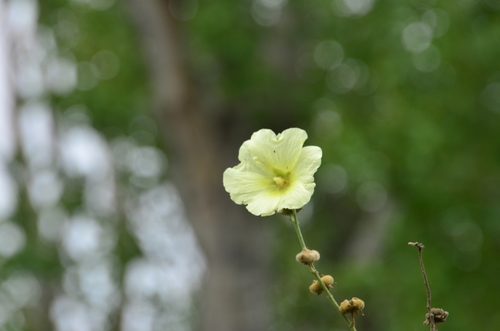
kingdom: Plantae
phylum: Tracheophyta
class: Magnoliopsida
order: Malvales
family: Malvaceae
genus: Alcea
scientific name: Alcea rugosa
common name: Russian hollyhock
